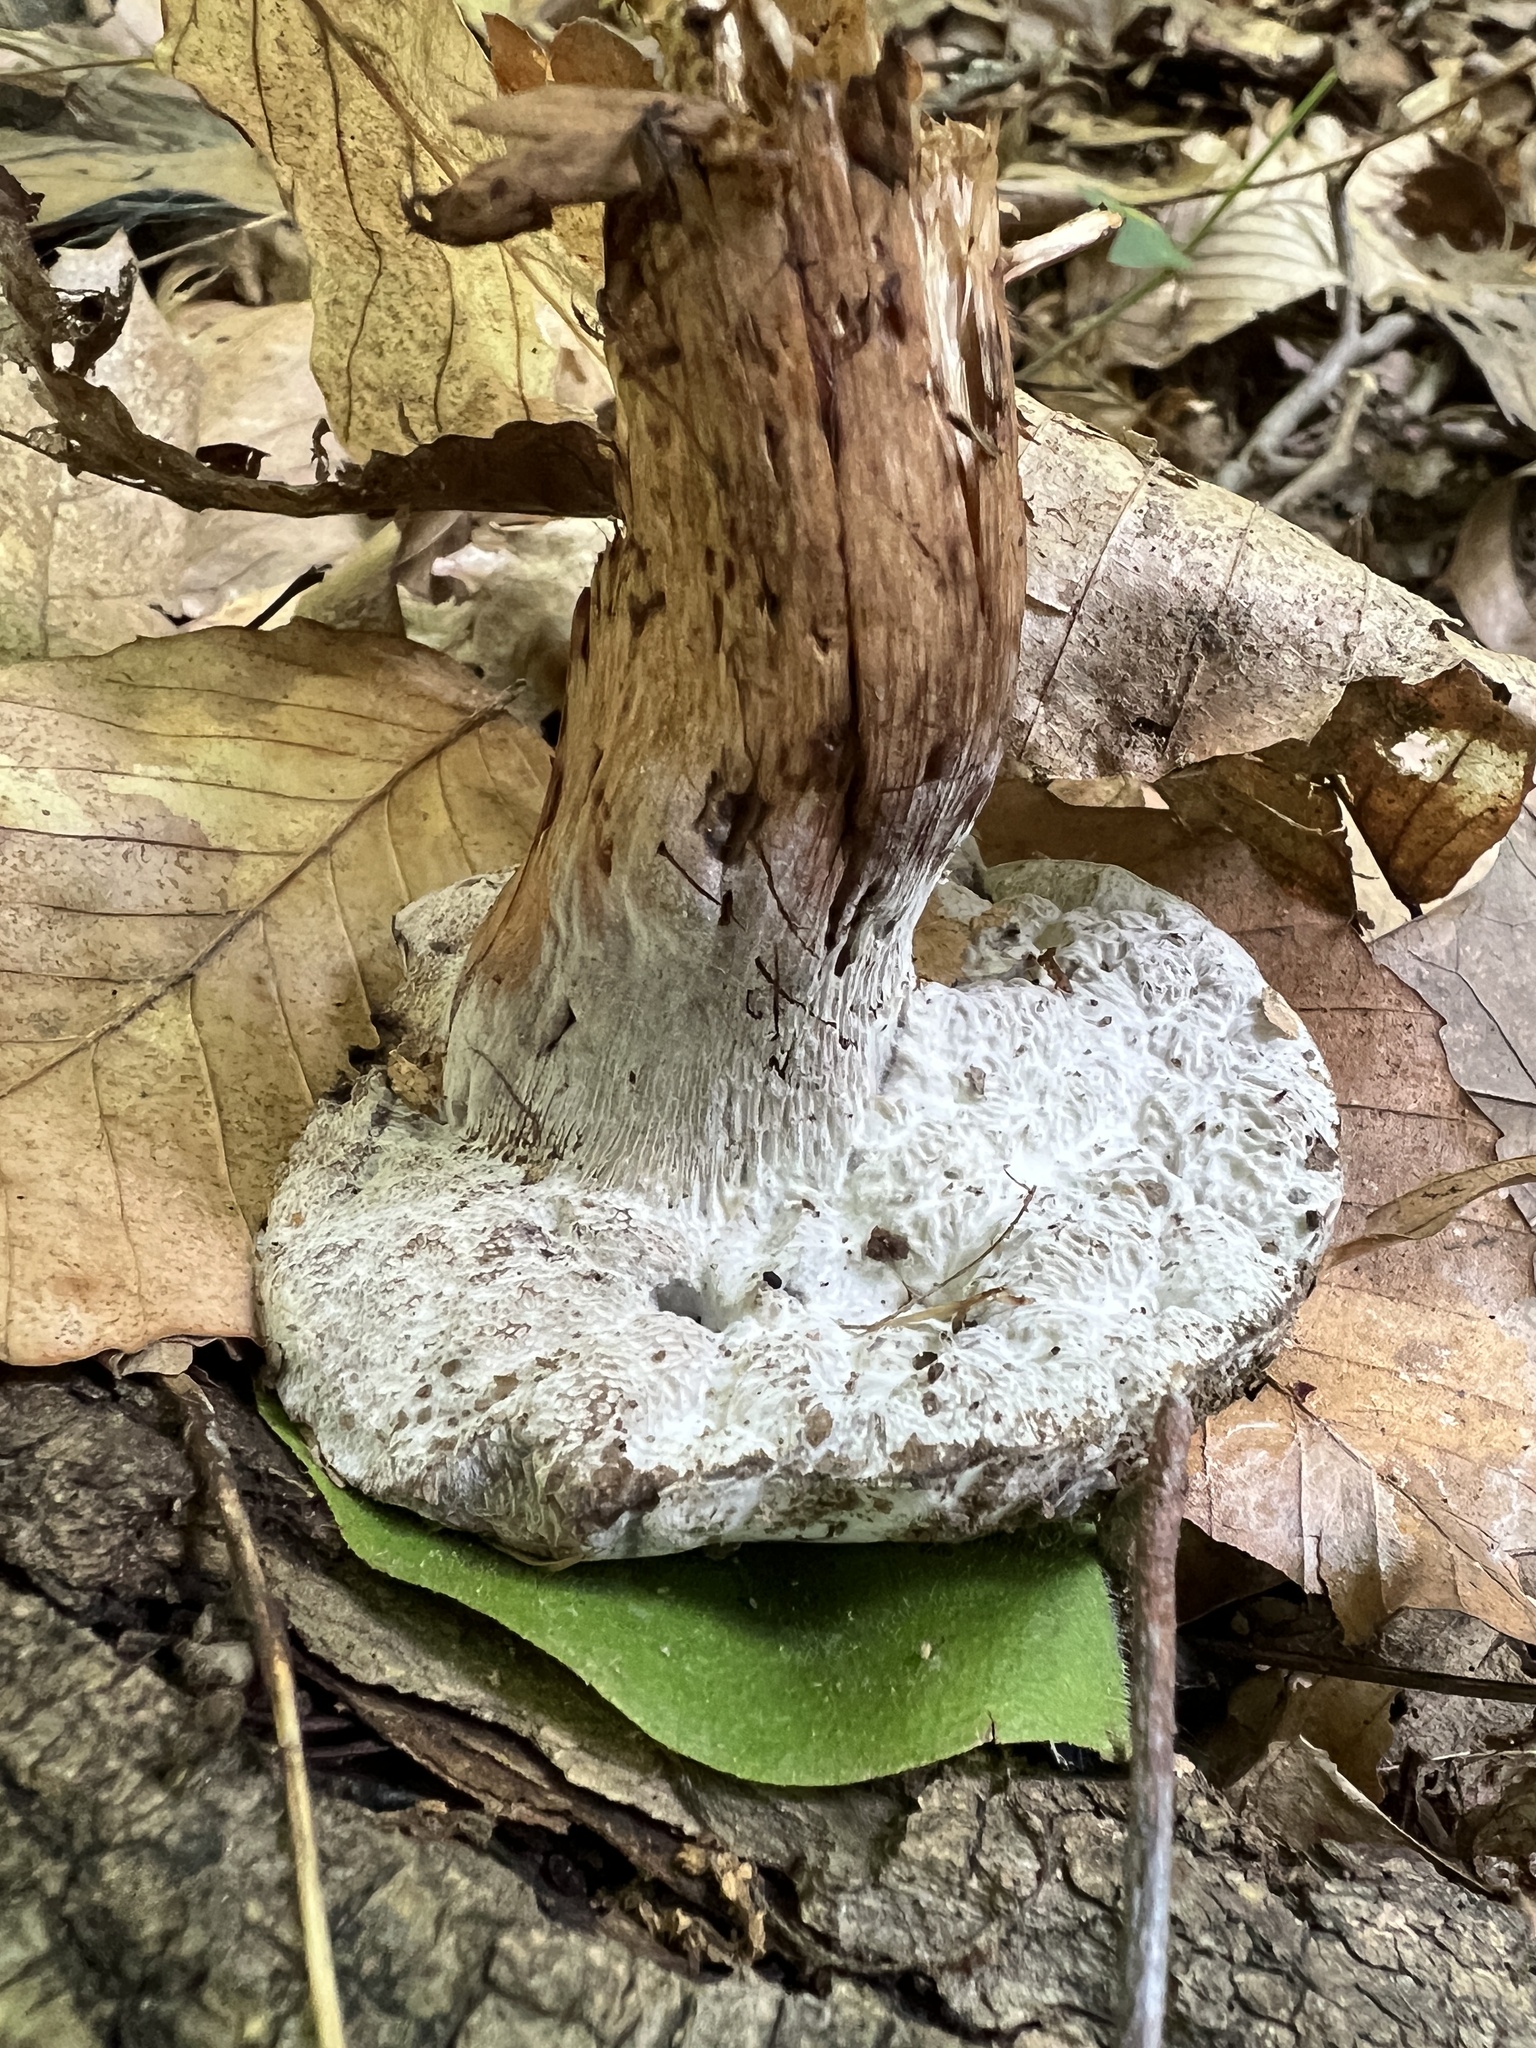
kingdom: Fungi
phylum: Ascomycota
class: Sordariomycetes
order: Hypocreales
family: Hypocreaceae
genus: Hypomyces
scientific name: Hypomyces chrysospermus
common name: Bolete mould
